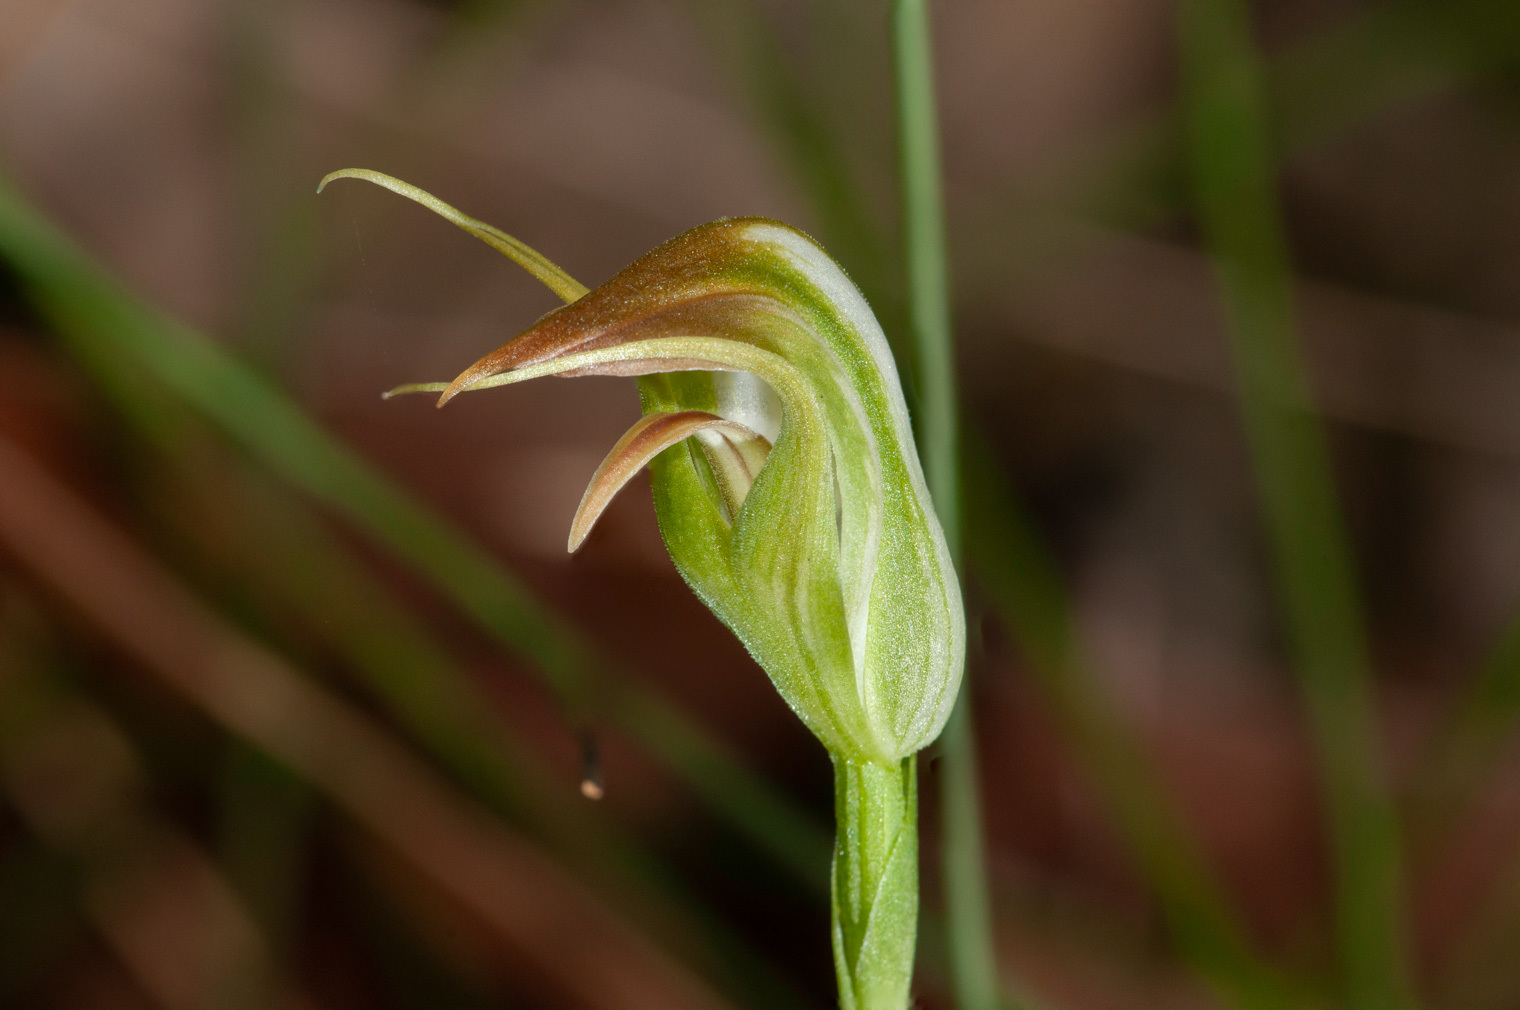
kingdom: Plantae
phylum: Tracheophyta
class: Liliopsida
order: Asparagales
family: Orchidaceae
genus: Pterostylis
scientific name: Pterostylis acuminata
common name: Pointed greenhood
